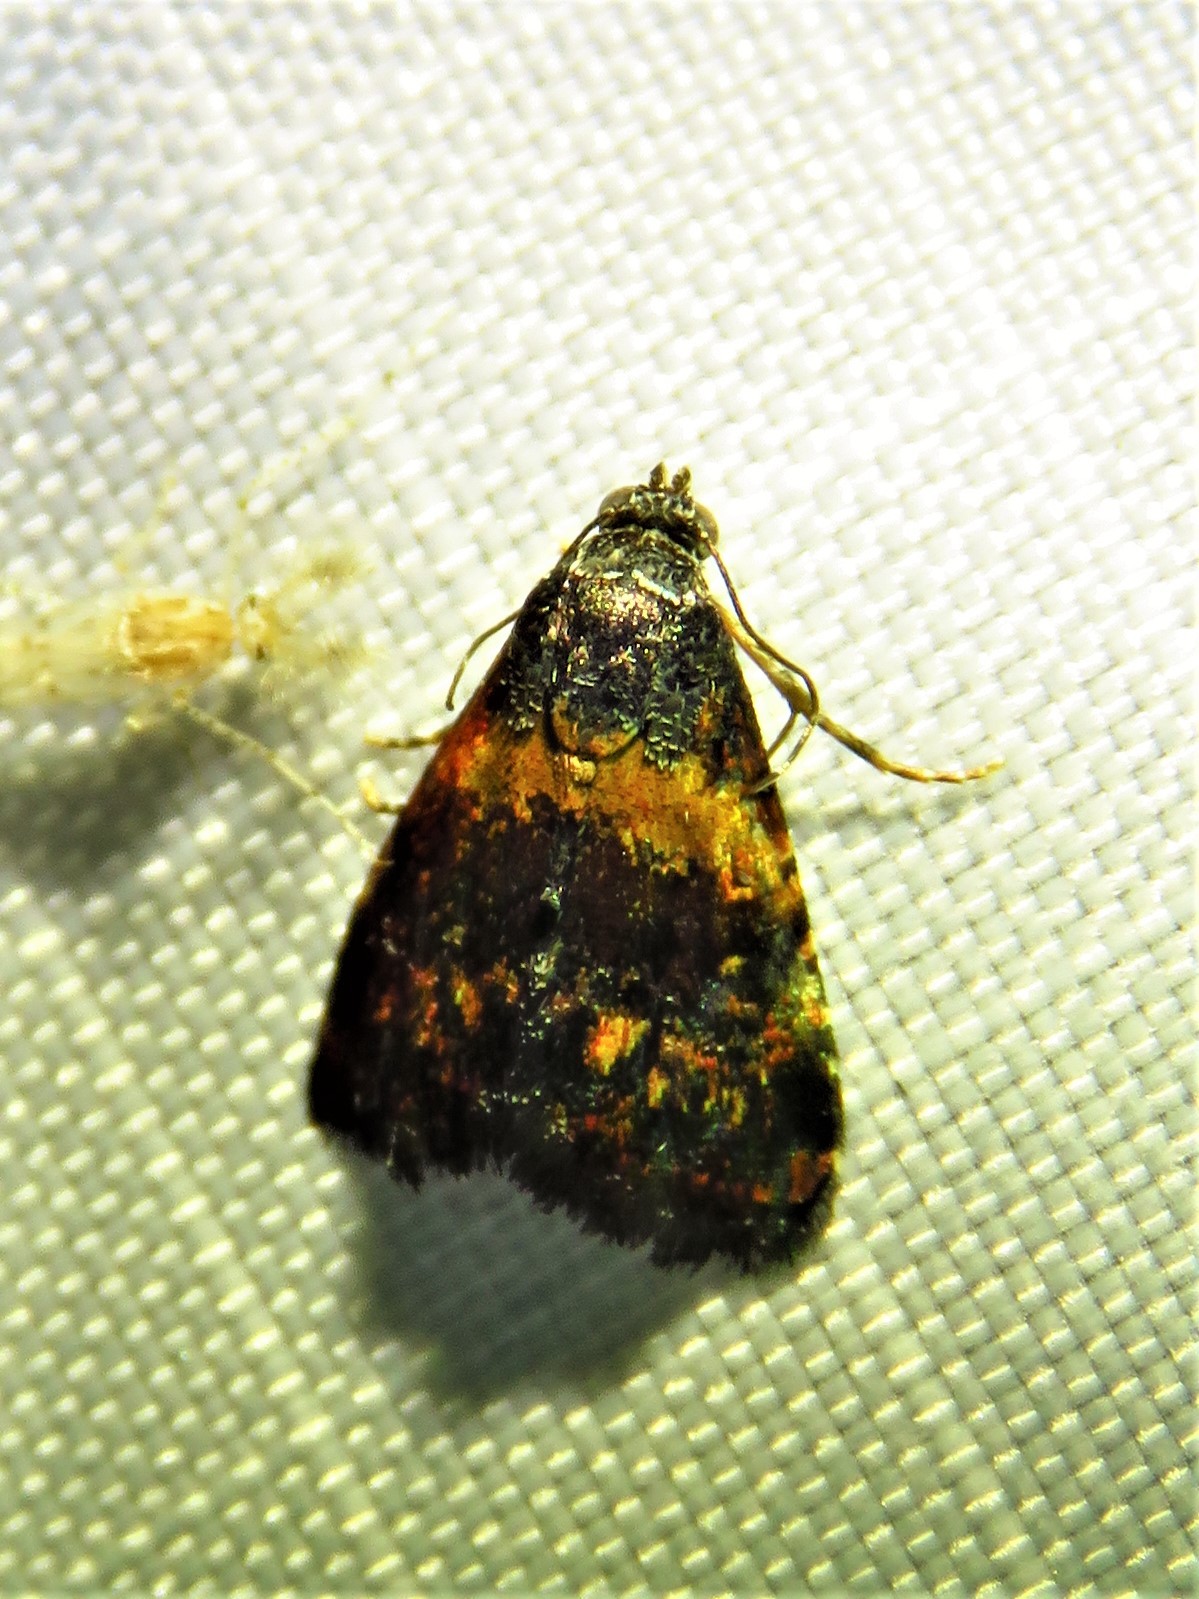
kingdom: Animalia
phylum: Arthropoda
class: Insecta
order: Lepidoptera
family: Noctuidae
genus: Tripudia
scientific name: Tripudia flavofasciata
